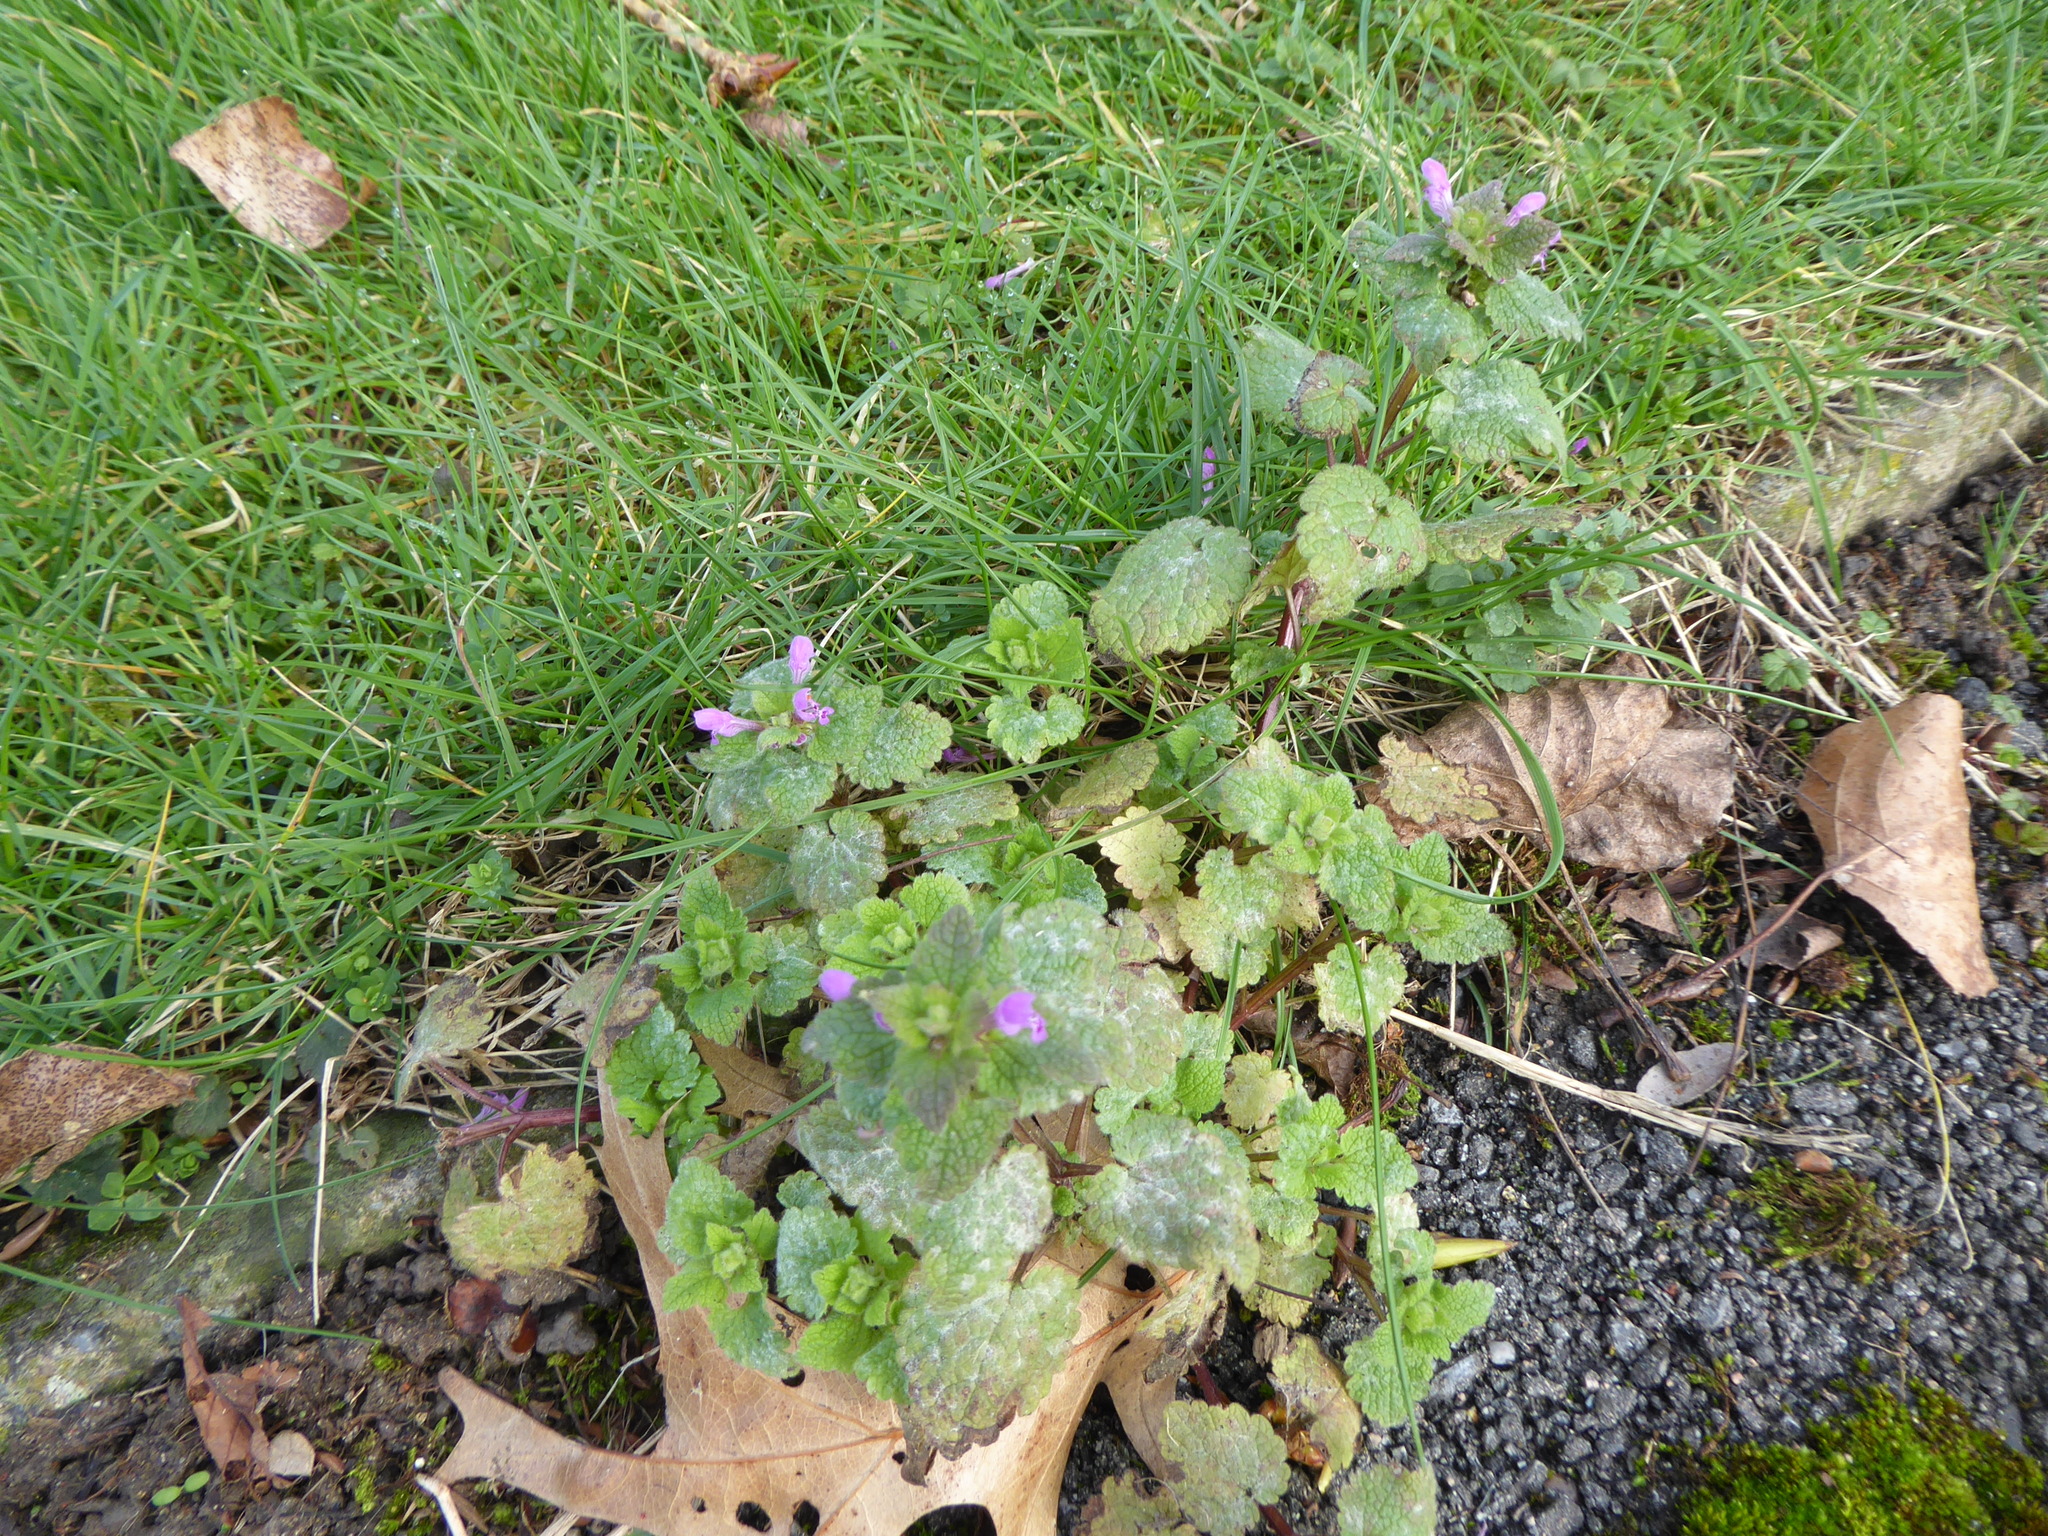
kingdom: Fungi
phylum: Ascomycota
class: Leotiomycetes
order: Helotiales
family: Erysiphaceae
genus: Neoerysiphe
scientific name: Neoerysiphe galeopsidis
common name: Mint mildew
